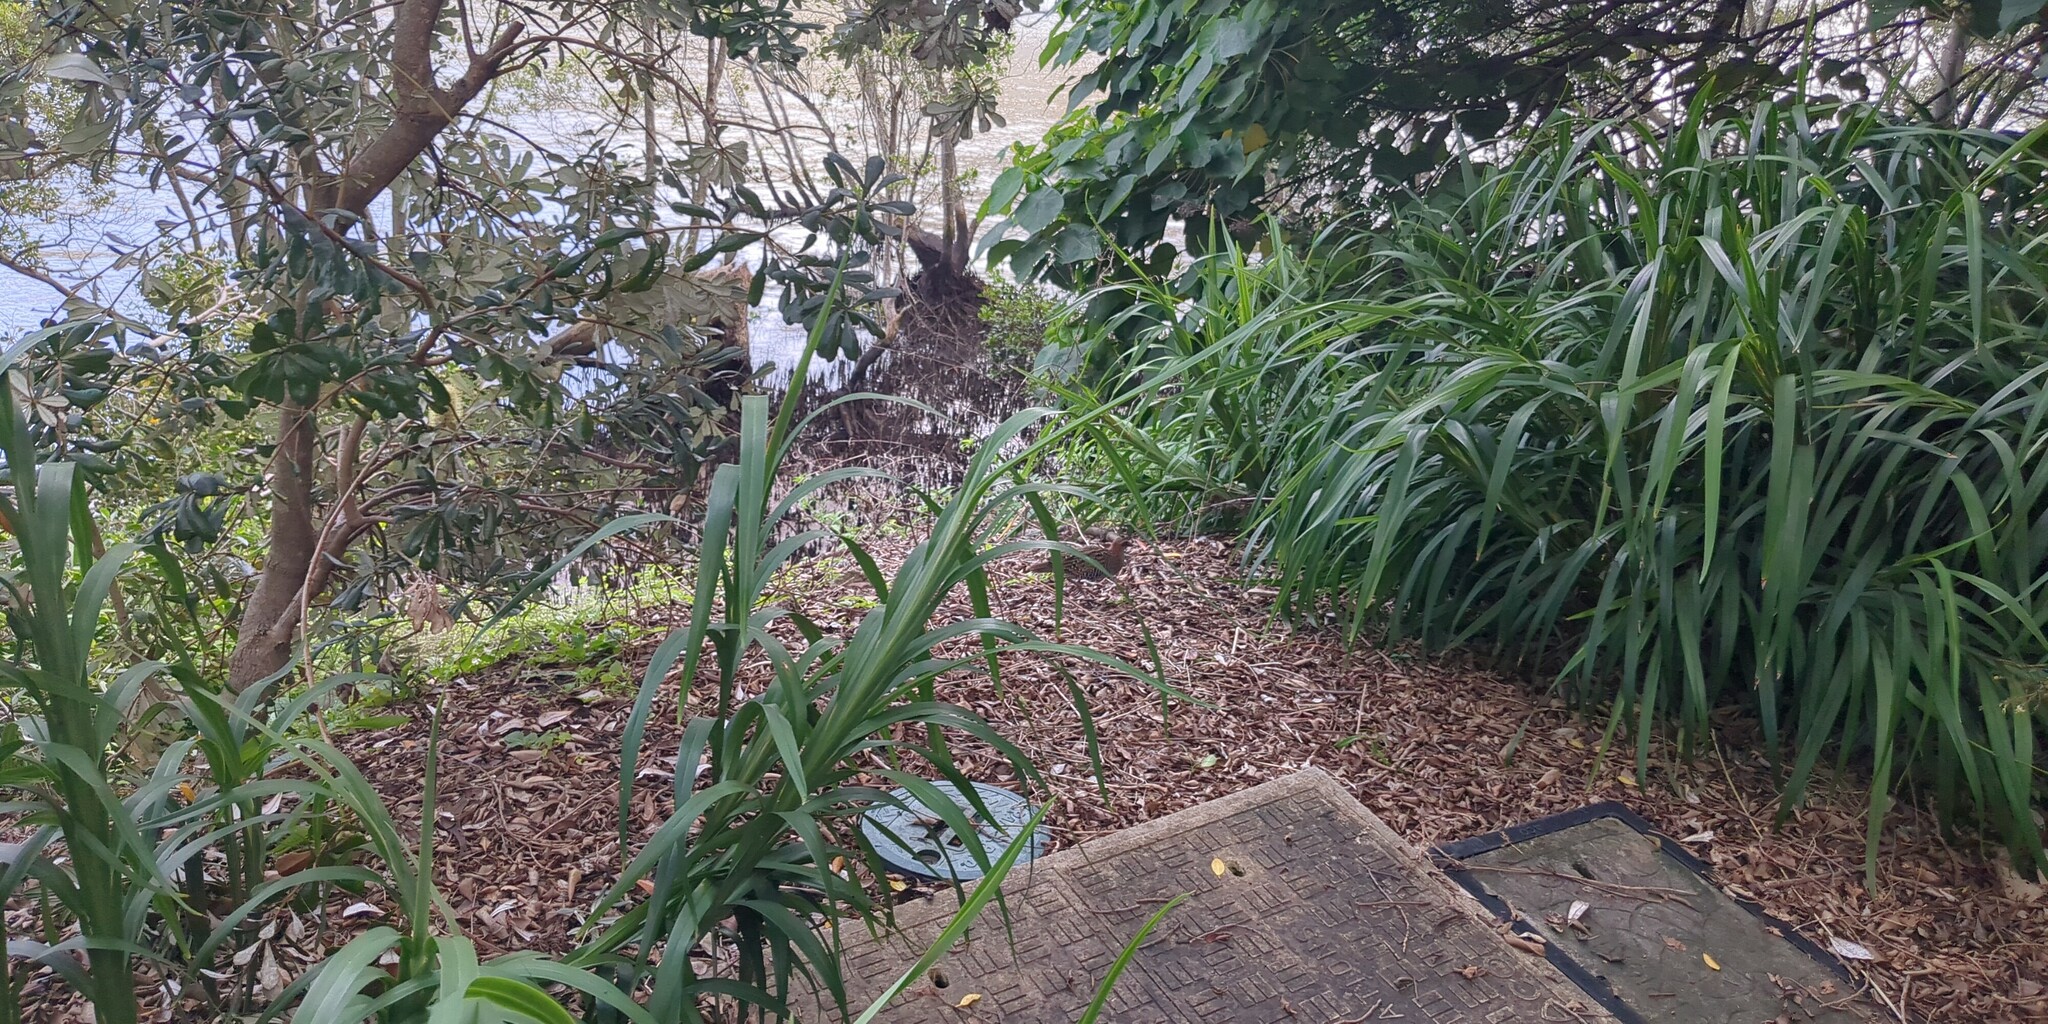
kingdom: Animalia
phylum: Chordata
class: Aves
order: Gruiformes
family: Rallidae
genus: Gallirallus
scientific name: Gallirallus philippensis
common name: Buff-banded rail
